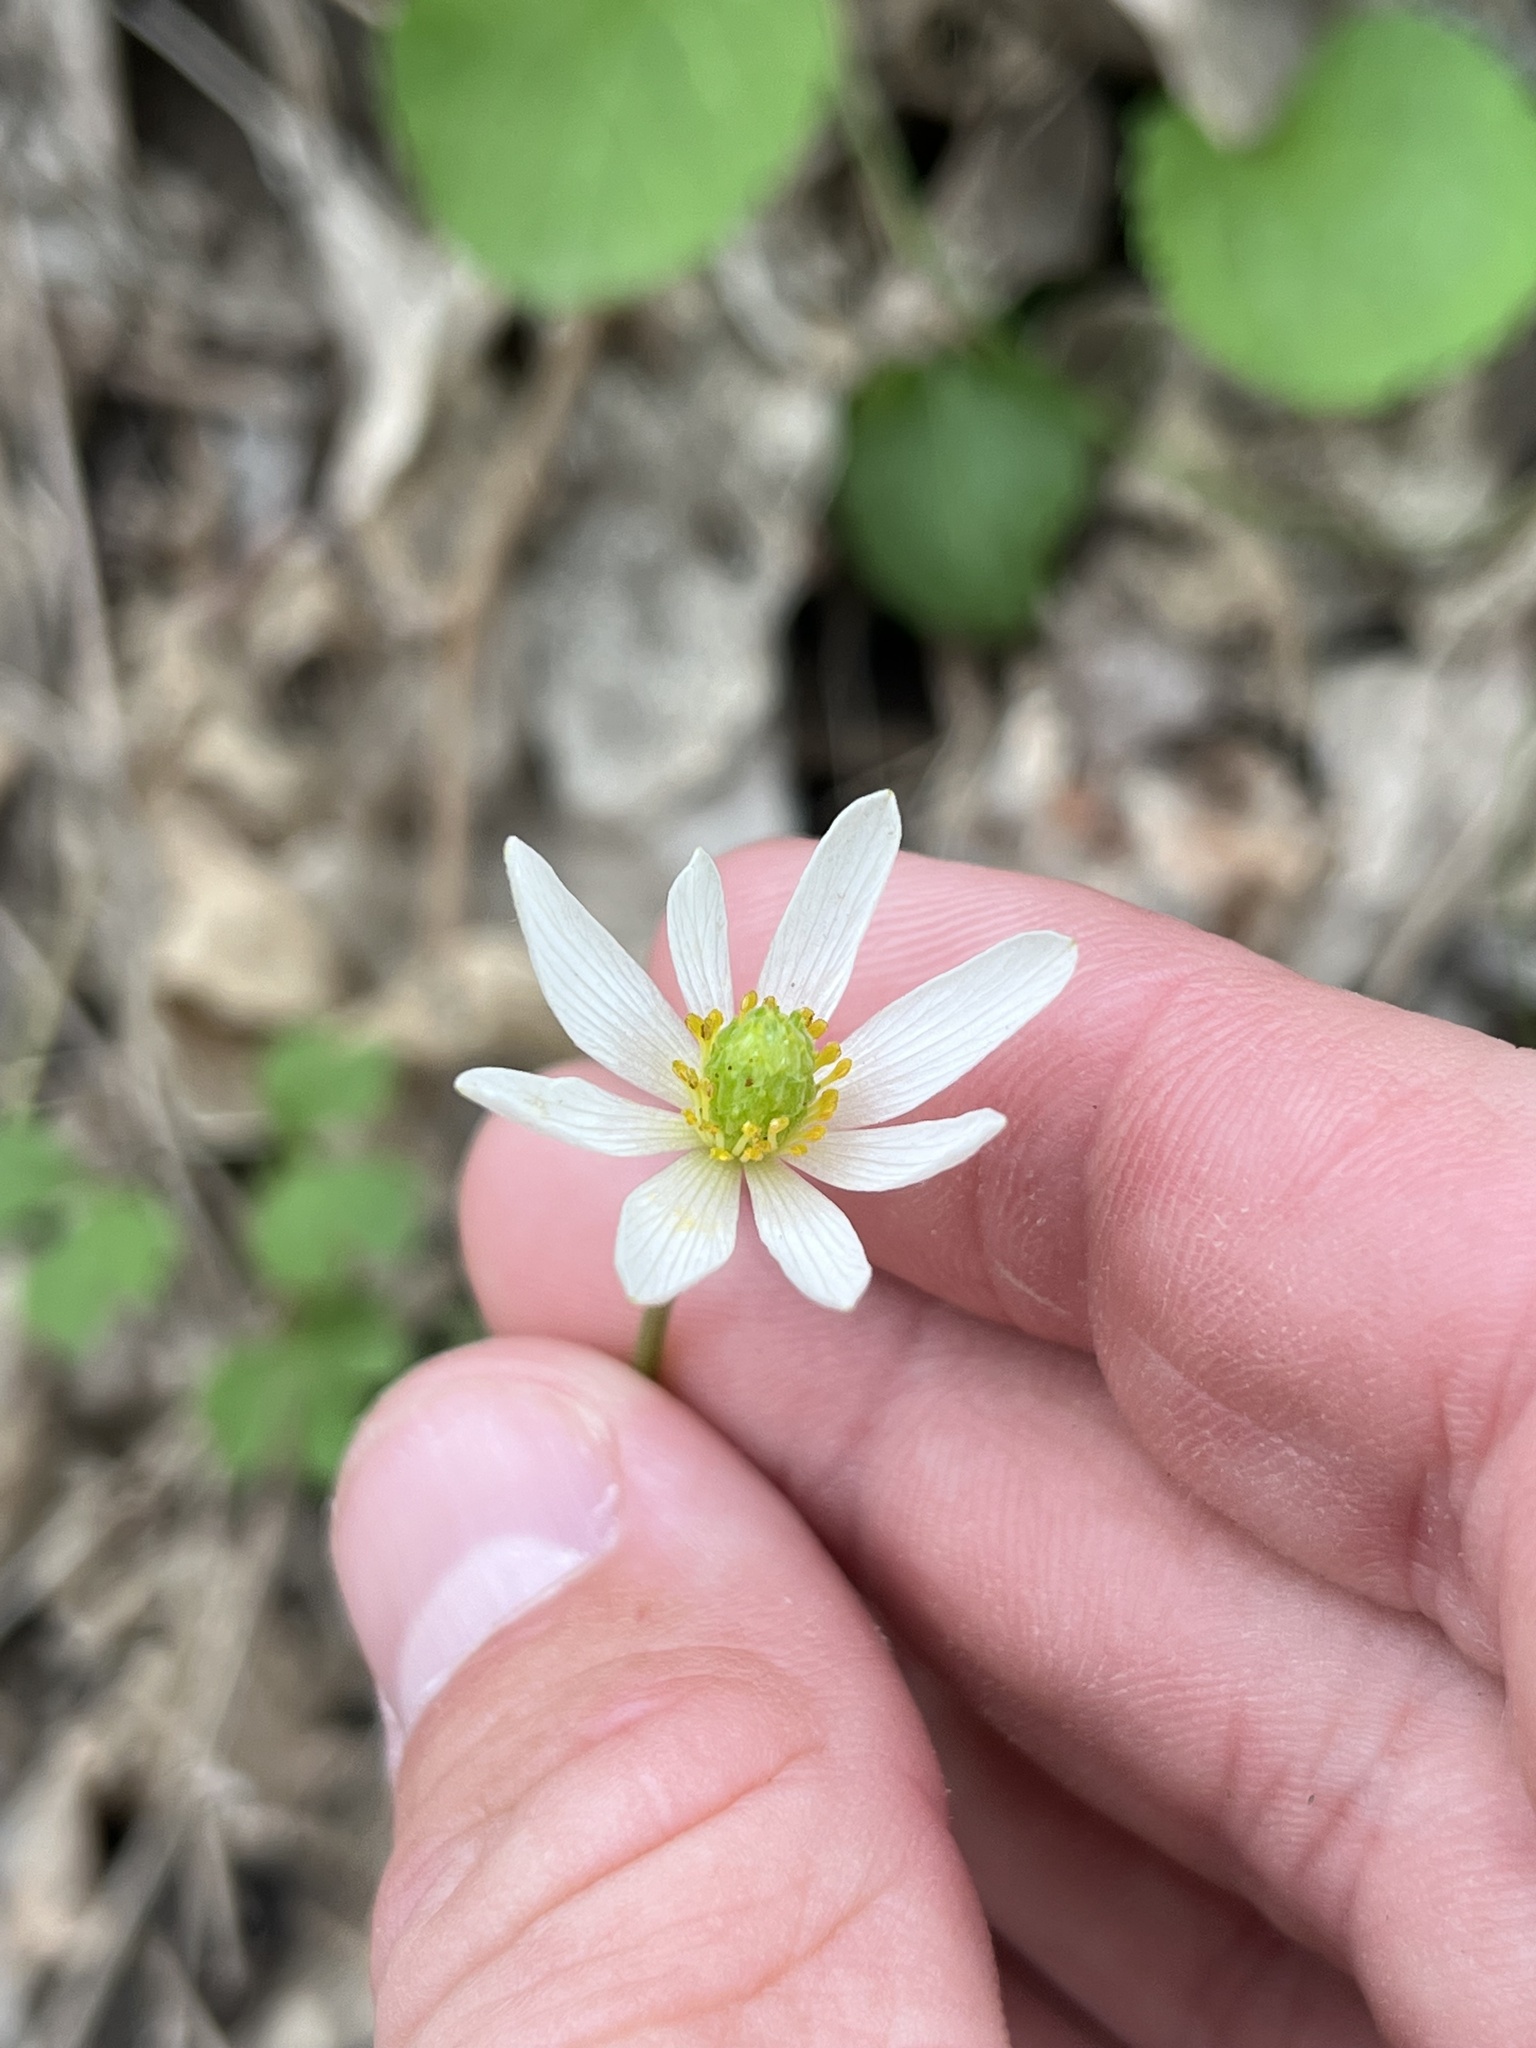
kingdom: Plantae
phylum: Tracheophyta
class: Magnoliopsida
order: Ranunculales
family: Ranunculaceae
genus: Anemone
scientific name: Anemone edwardsiana
